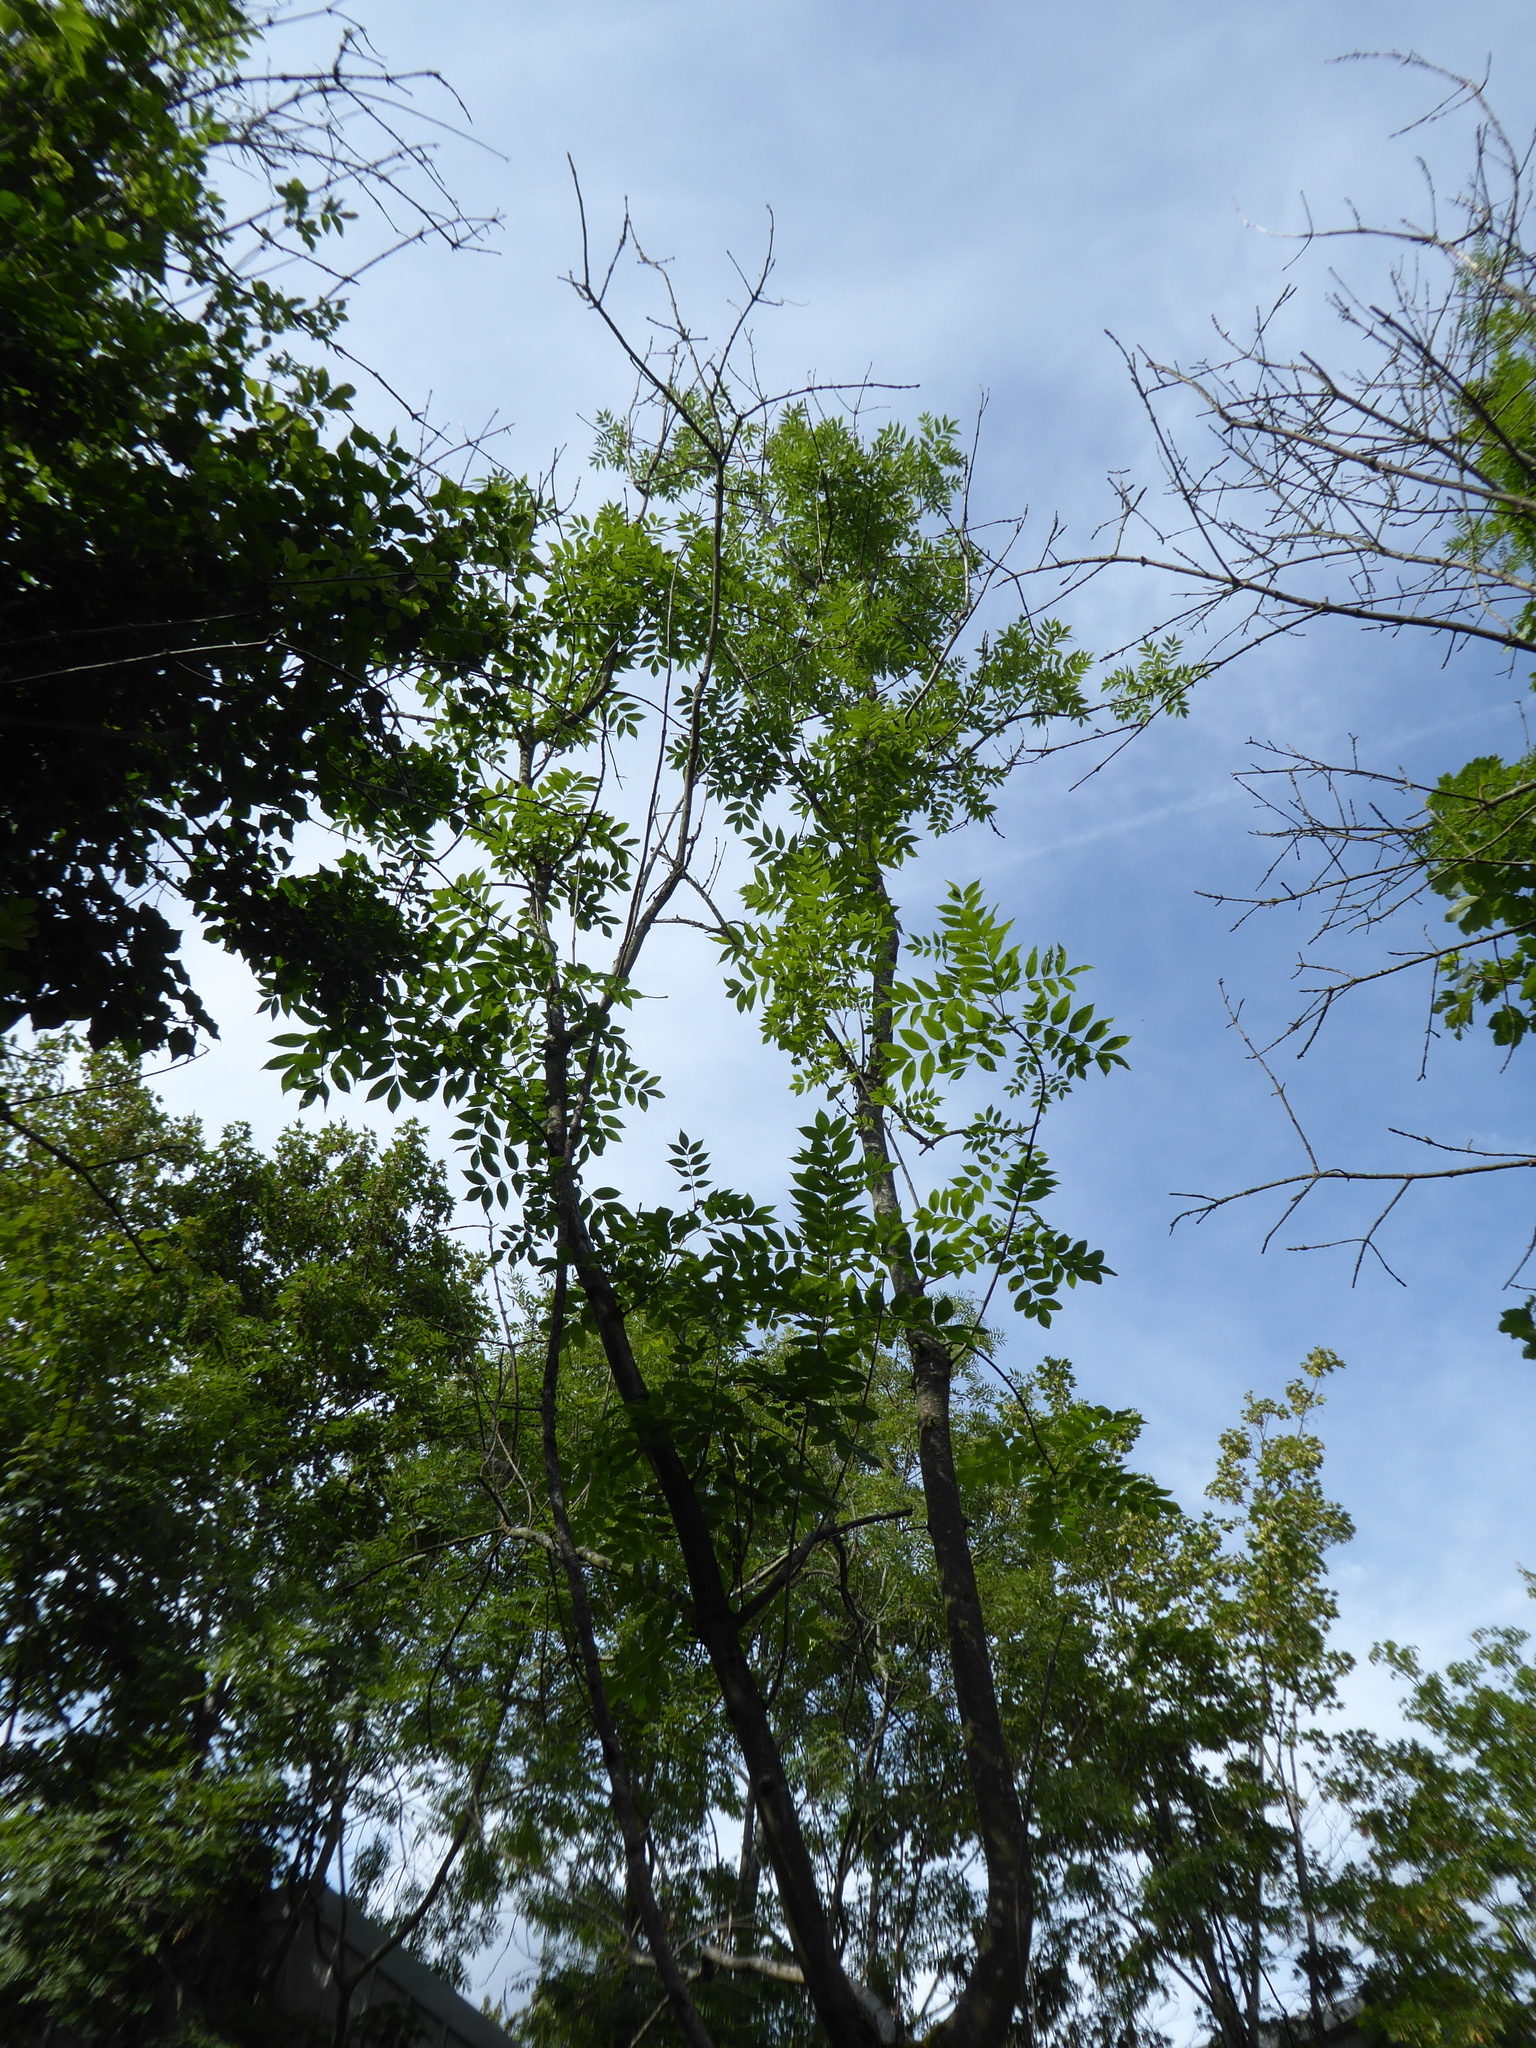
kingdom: Plantae
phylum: Tracheophyta
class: Magnoliopsida
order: Lamiales
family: Oleaceae
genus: Fraxinus
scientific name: Fraxinus excelsior
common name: European ash
